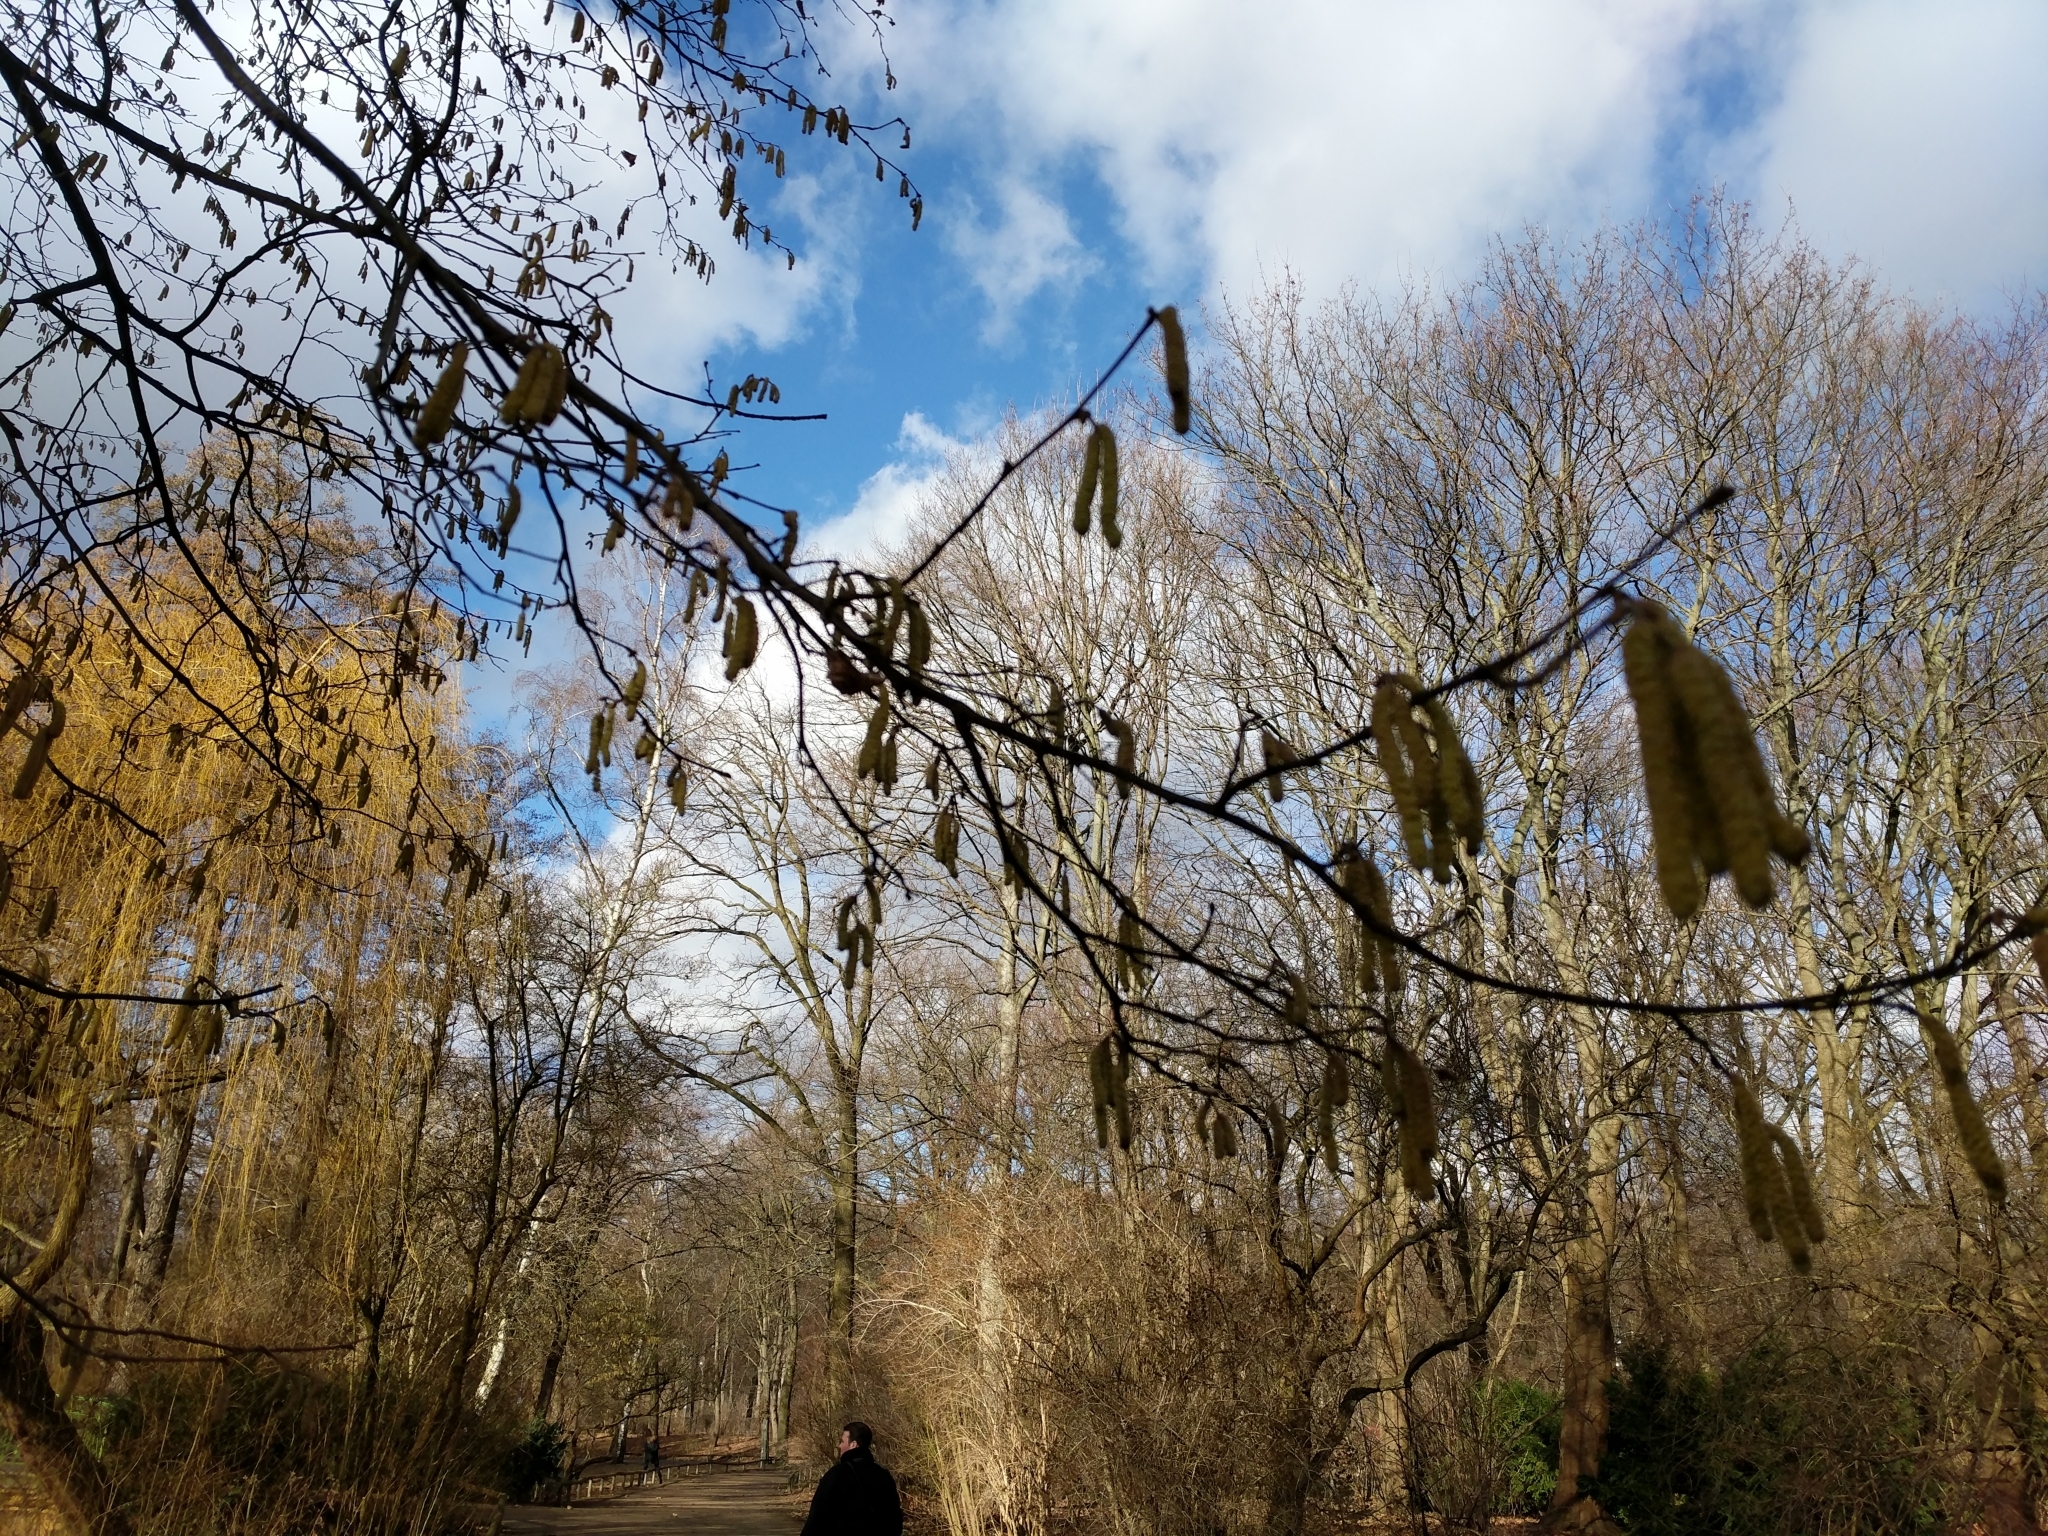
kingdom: Plantae
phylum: Tracheophyta
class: Magnoliopsida
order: Fagales
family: Betulaceae
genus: Corylus
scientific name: Corylus avellana
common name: European hazel
